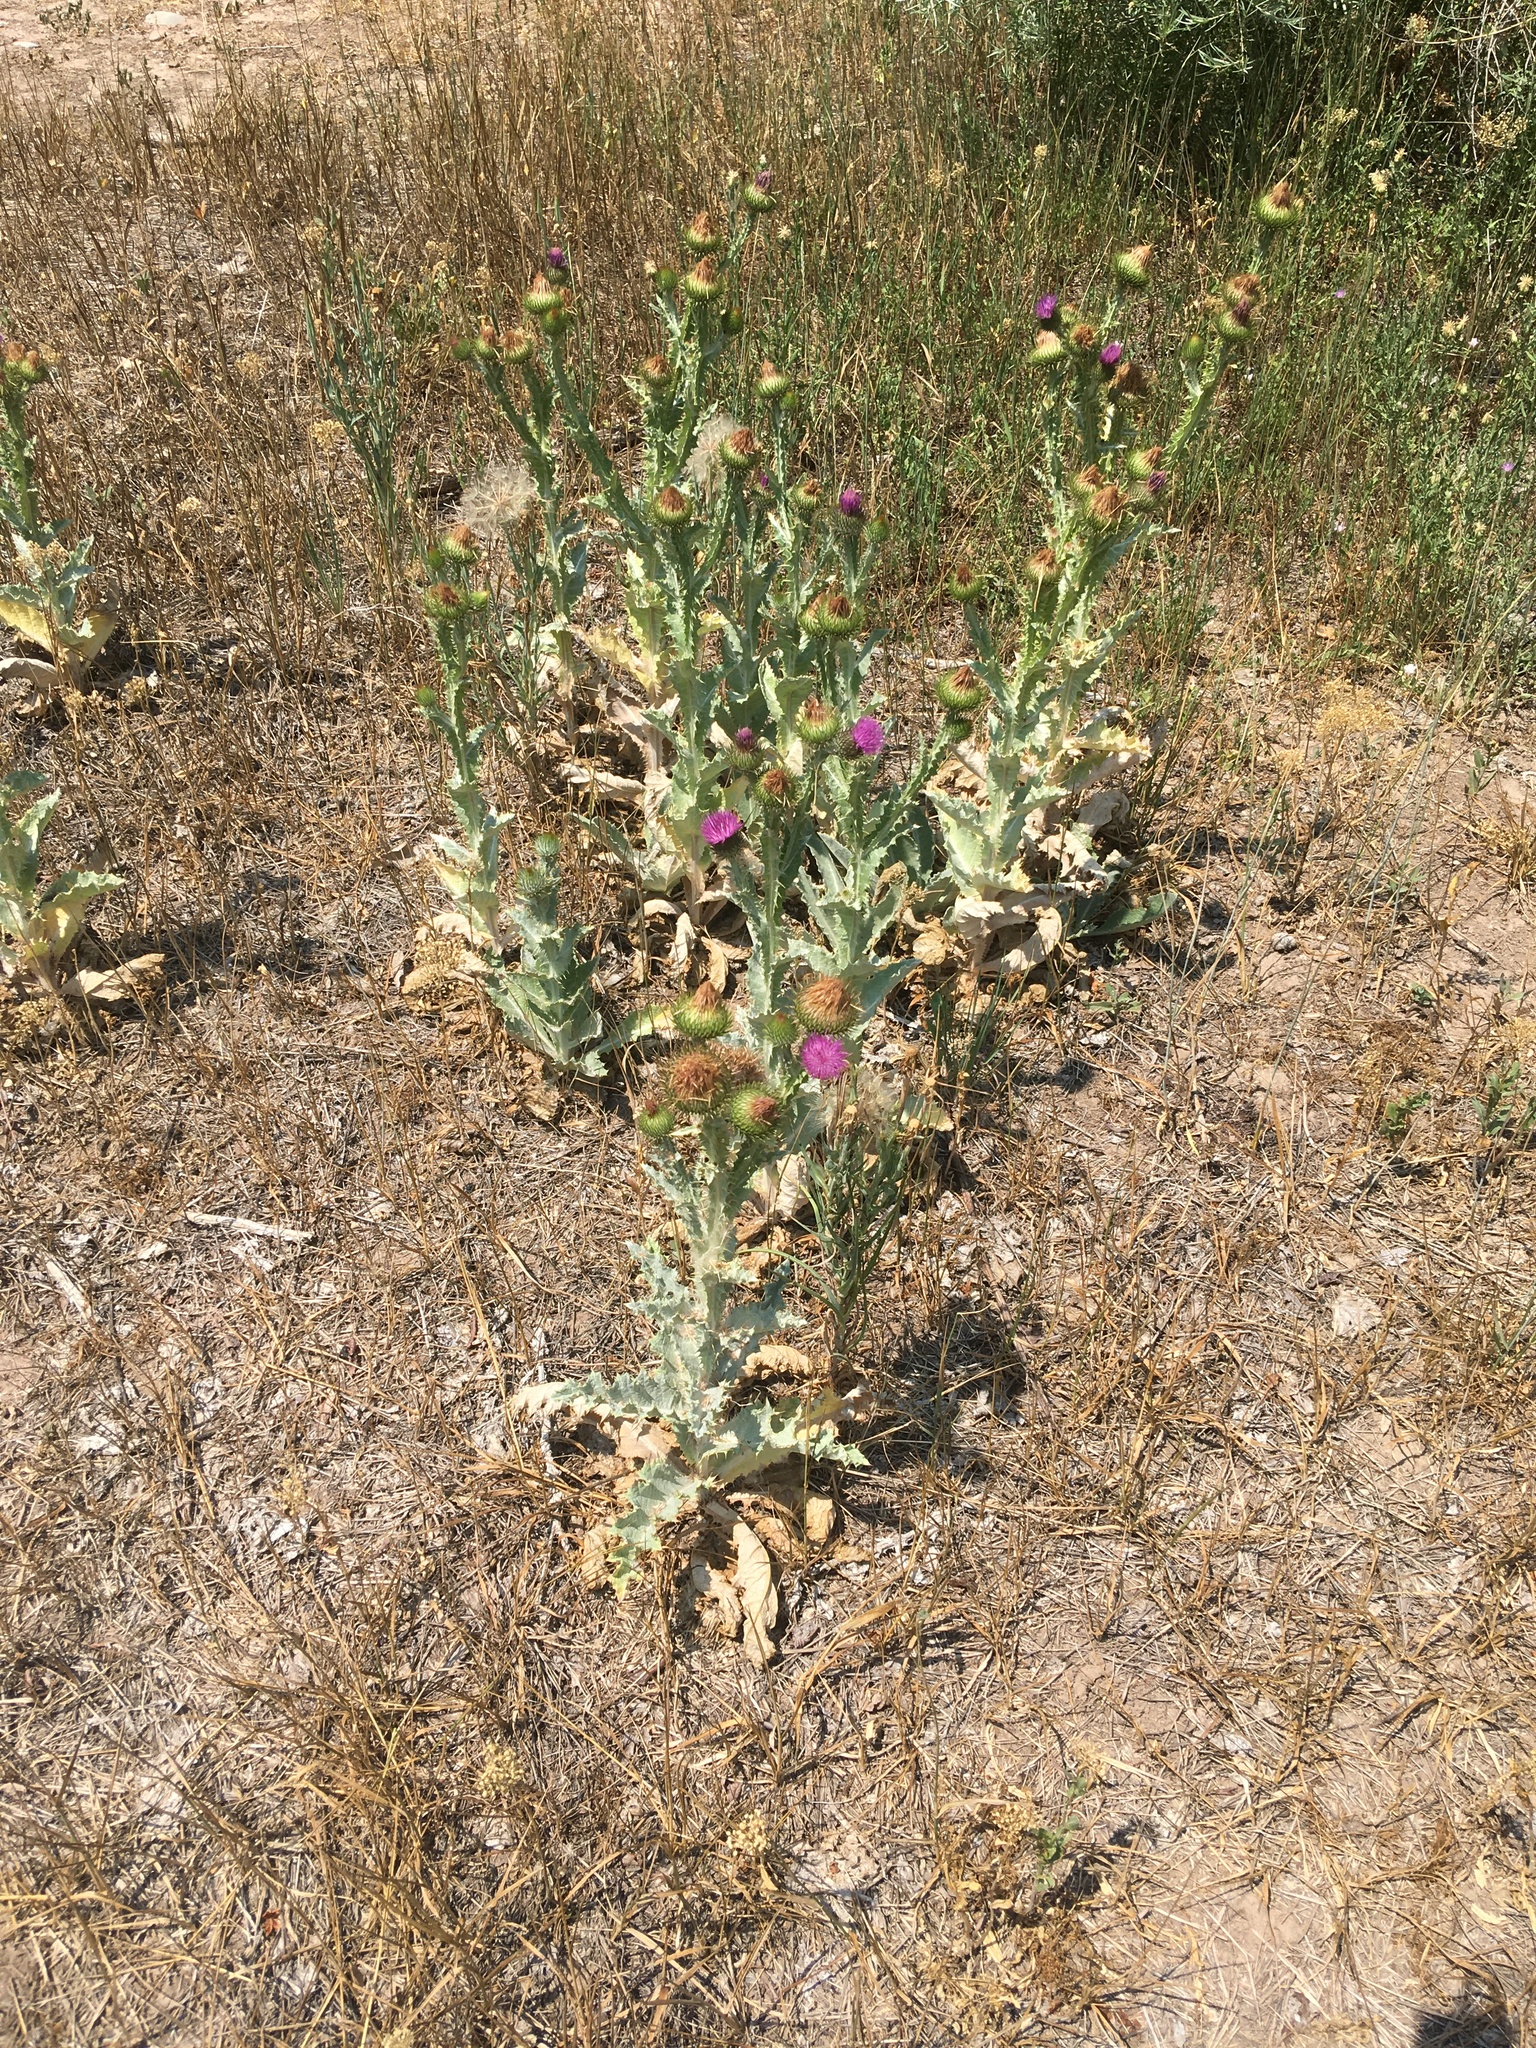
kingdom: Plantae
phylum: Tracheophyta
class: Magnoliopsida
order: Asterales
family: Asteraceae
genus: Onopordum
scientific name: Onopordum acanthium
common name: Scotch thistle
